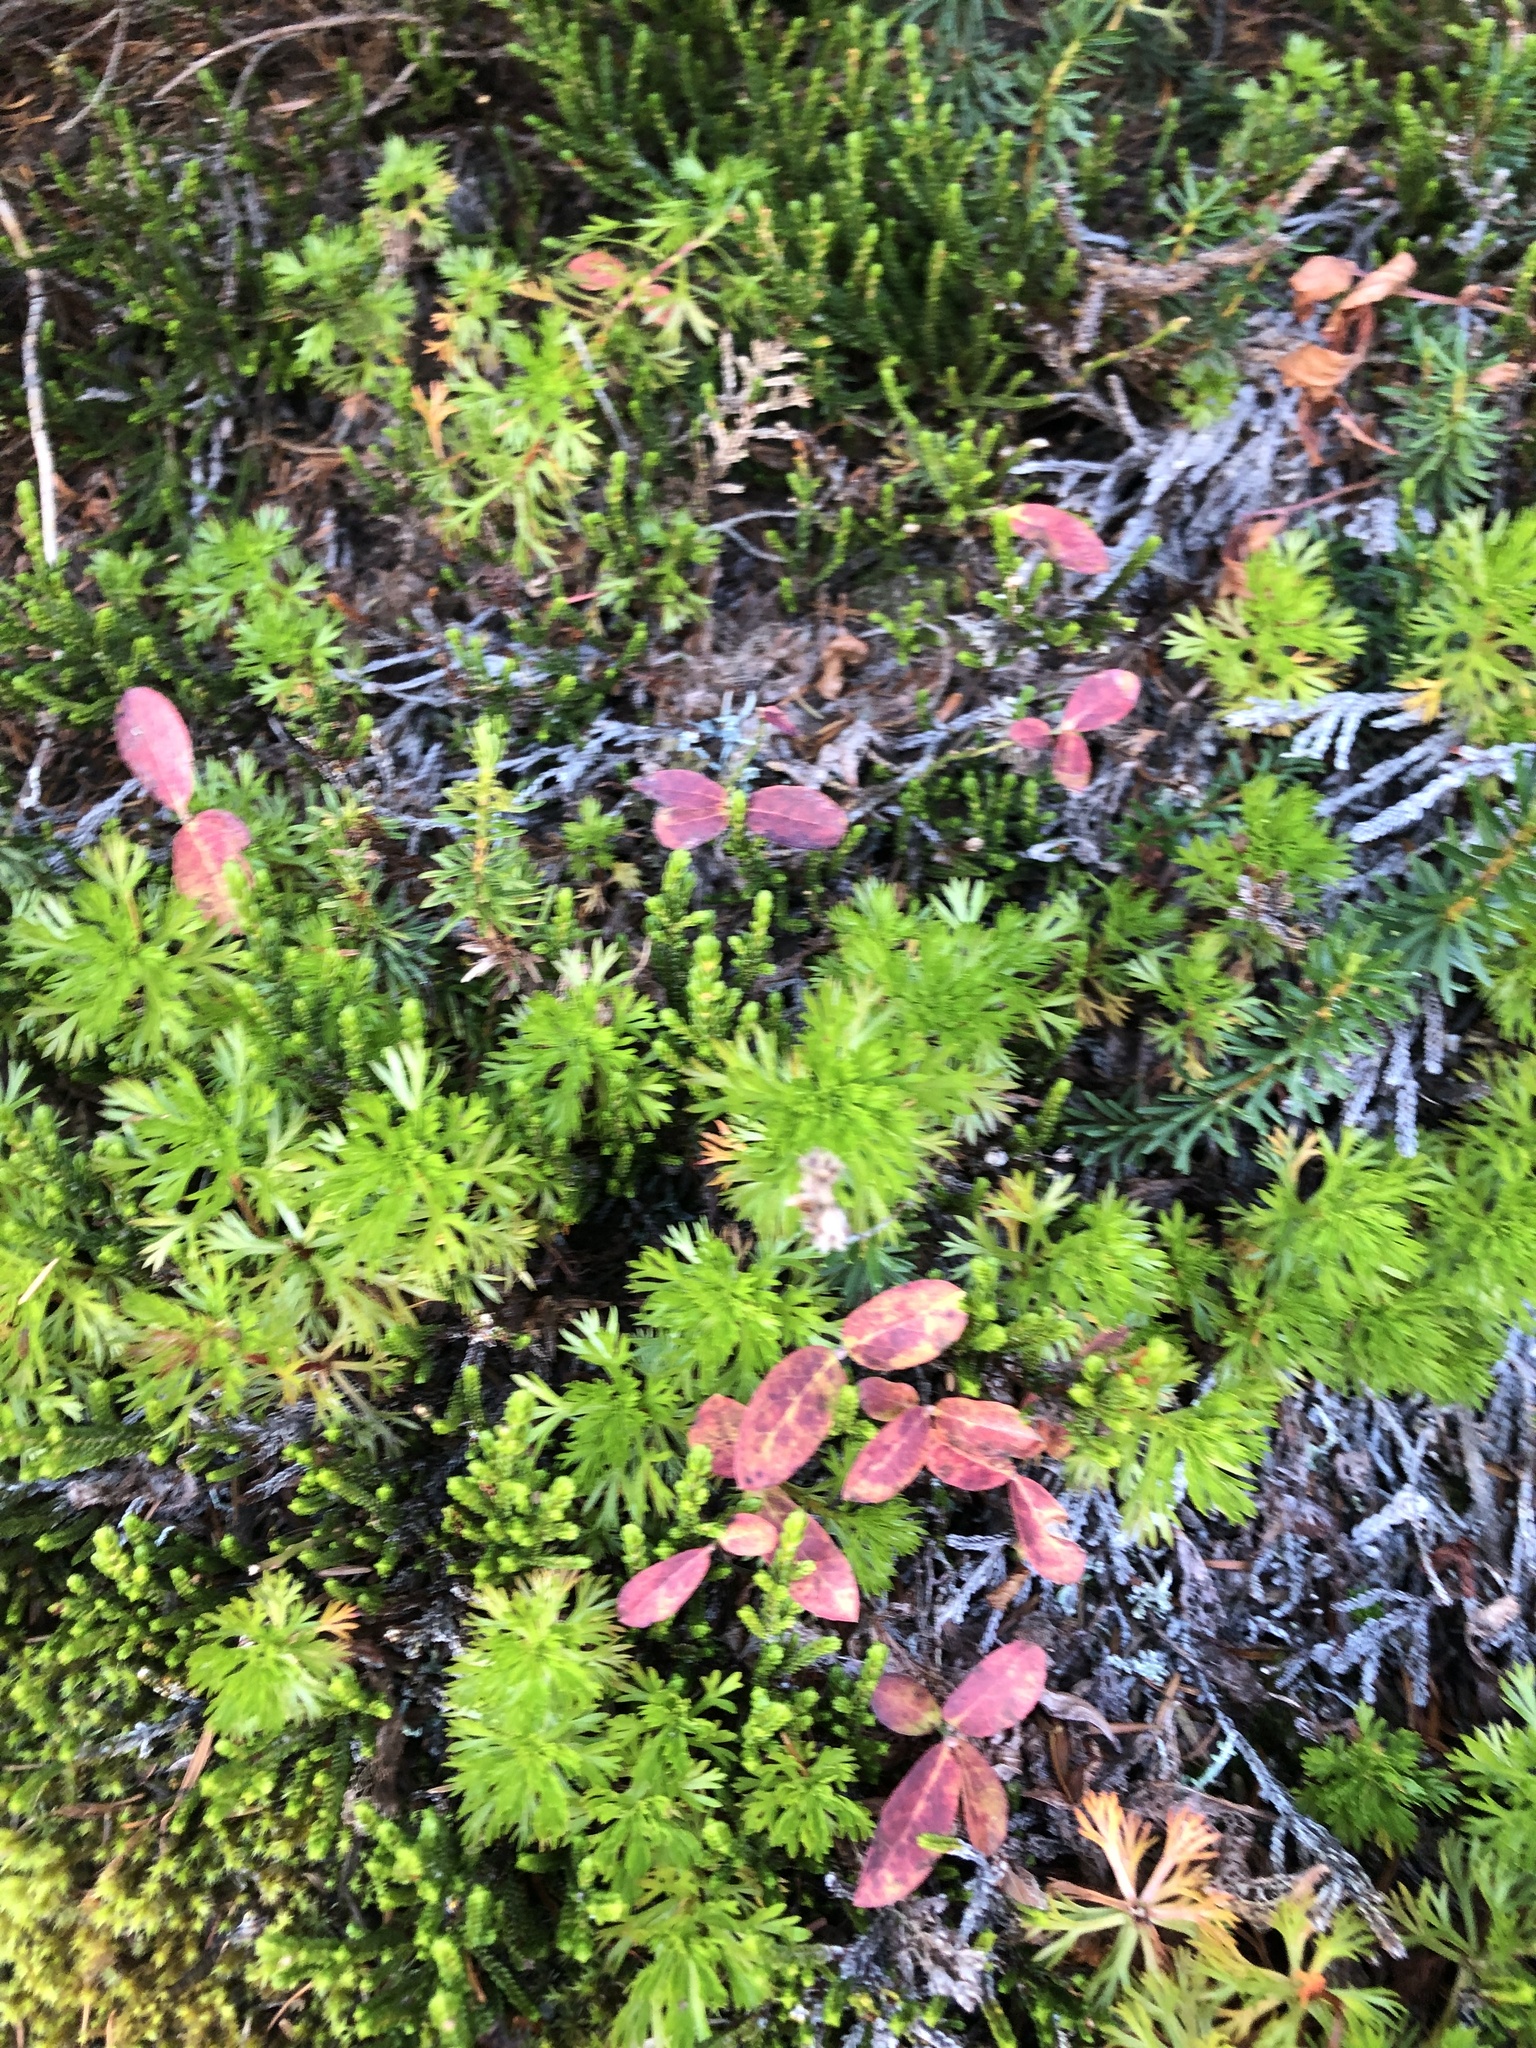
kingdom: Plantae
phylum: Tracheophyta
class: Magnoliopsida
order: Rosales
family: Rosaceae
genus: Luetkea
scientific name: Luetkea pectinata
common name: Partridgefoot
